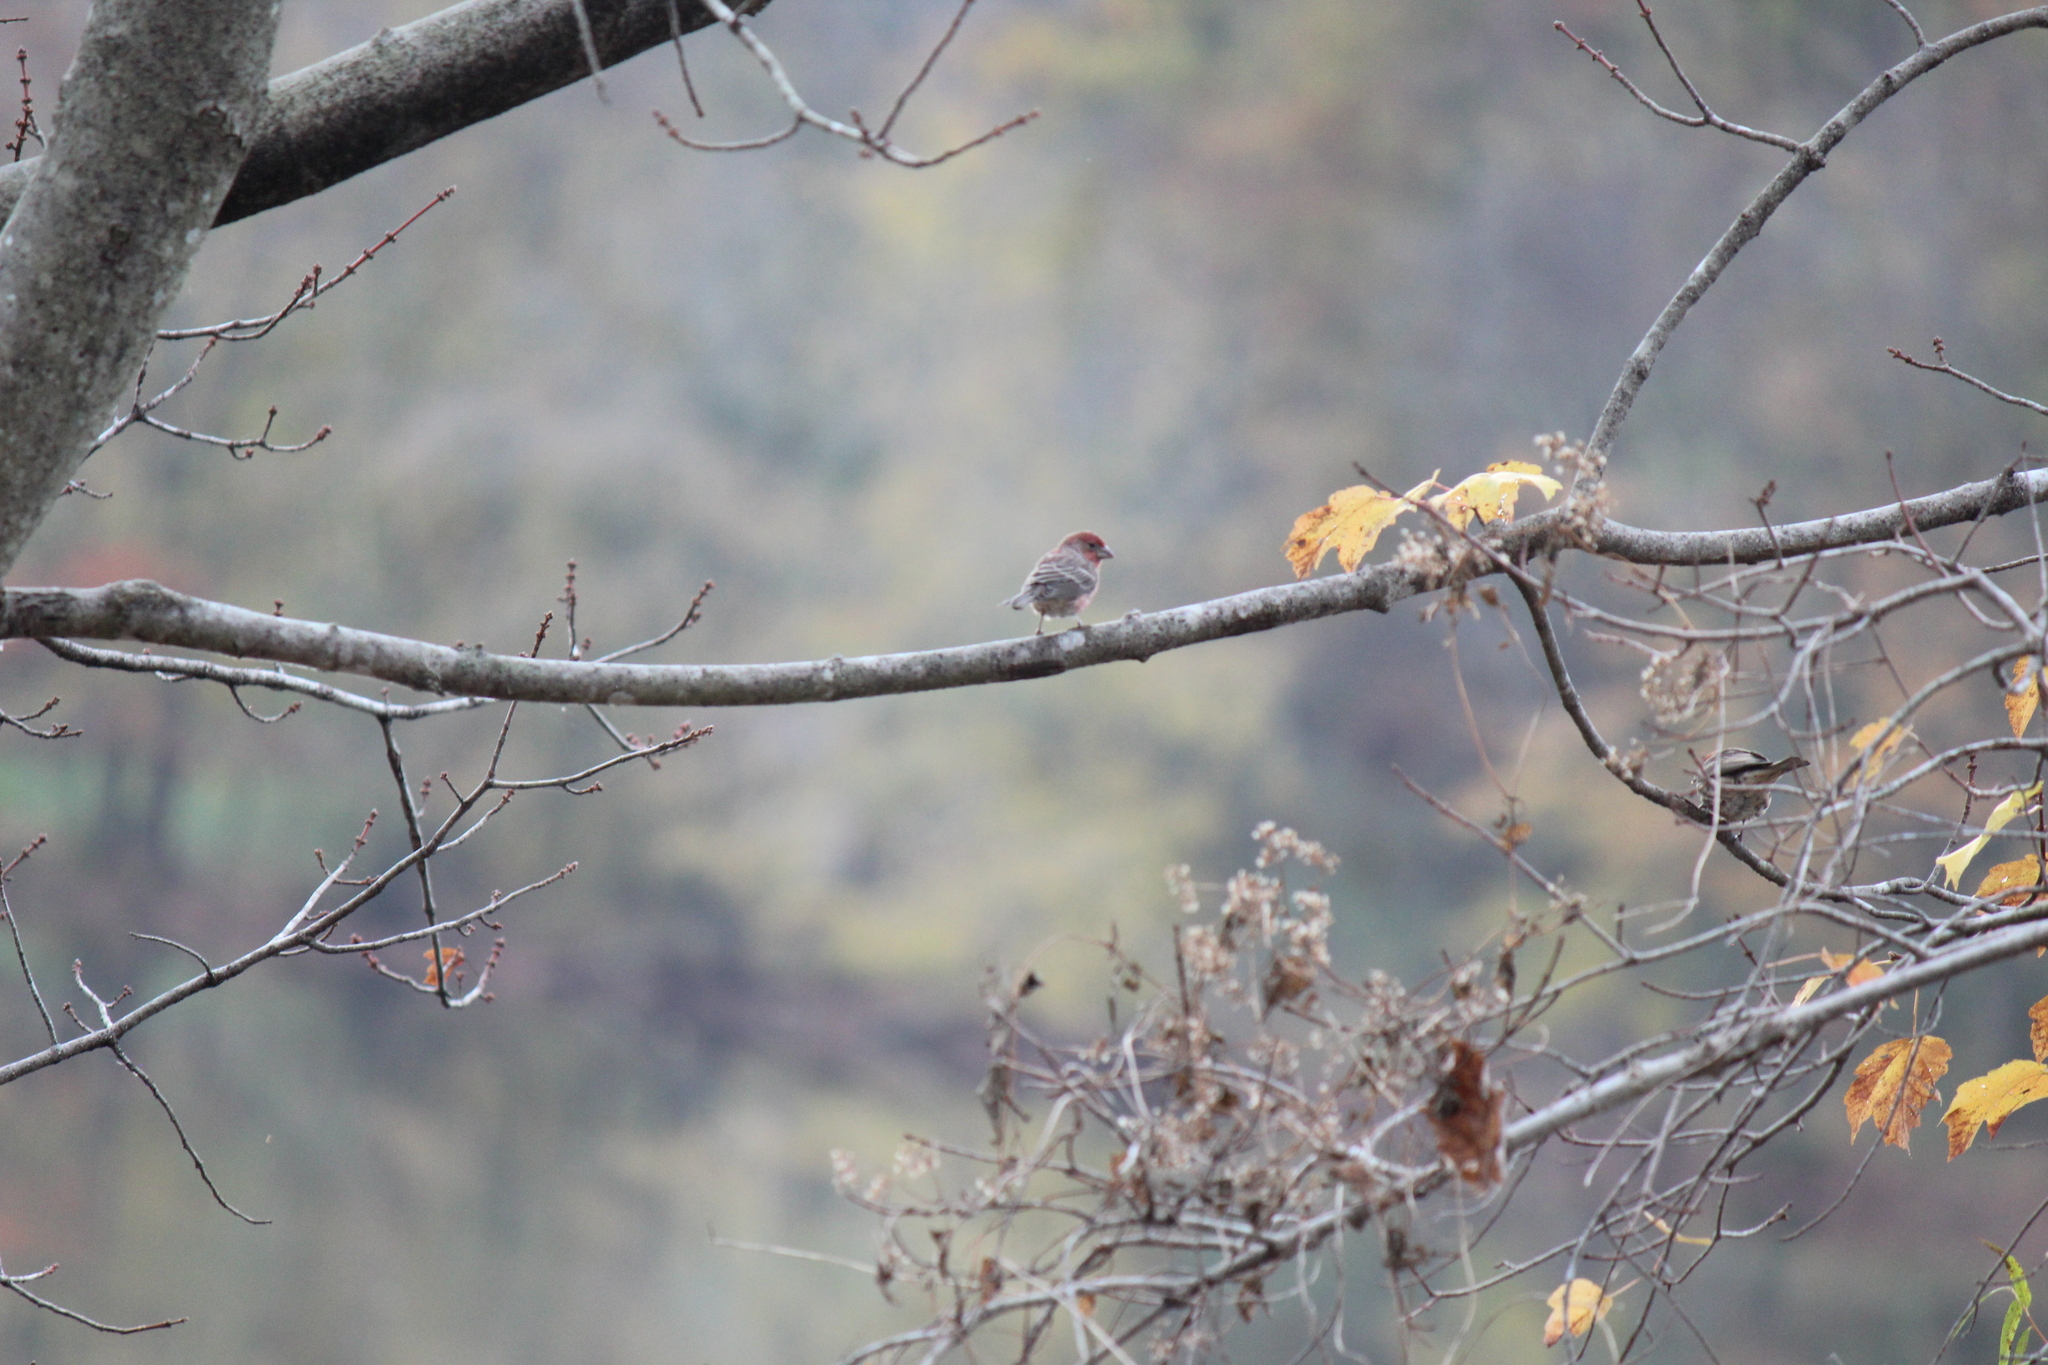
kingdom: Animalia
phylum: Chordata
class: Aves
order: Passeriformes
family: Fringillidae
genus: Haemorhous
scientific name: Haemorhous mexicanus
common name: House finch
